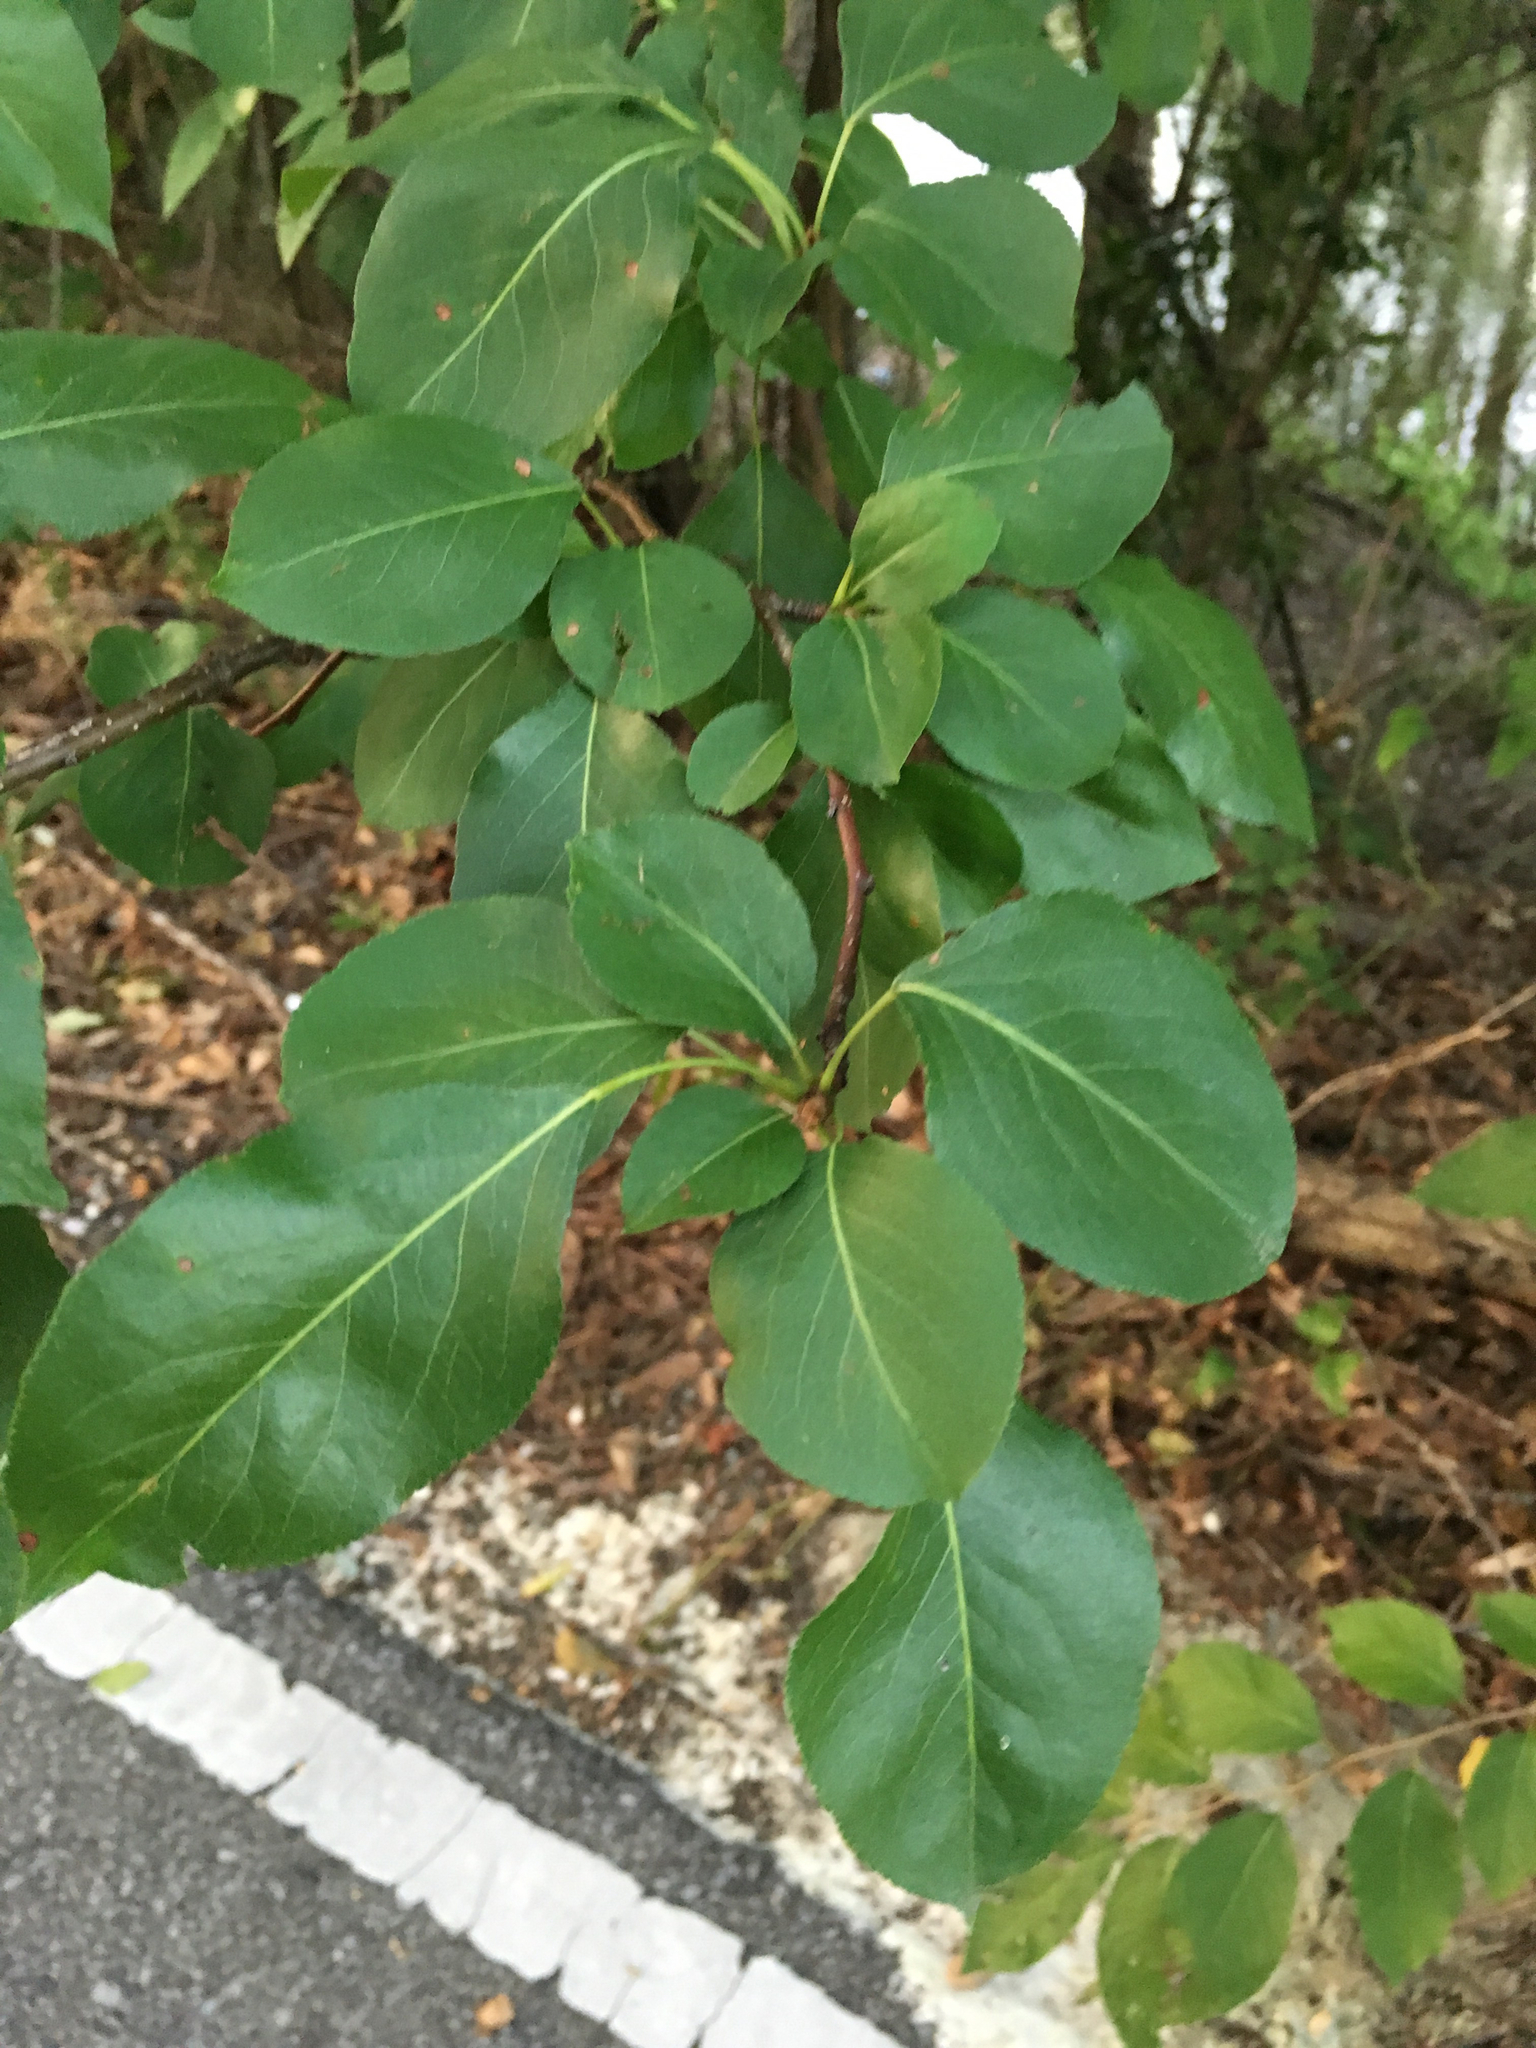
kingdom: Plantae
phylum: Tracheophyta
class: Magnoliopsida
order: Rosales
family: Rosaceae
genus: Pyrus
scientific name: Pyrus calleryana
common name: Callery pear
